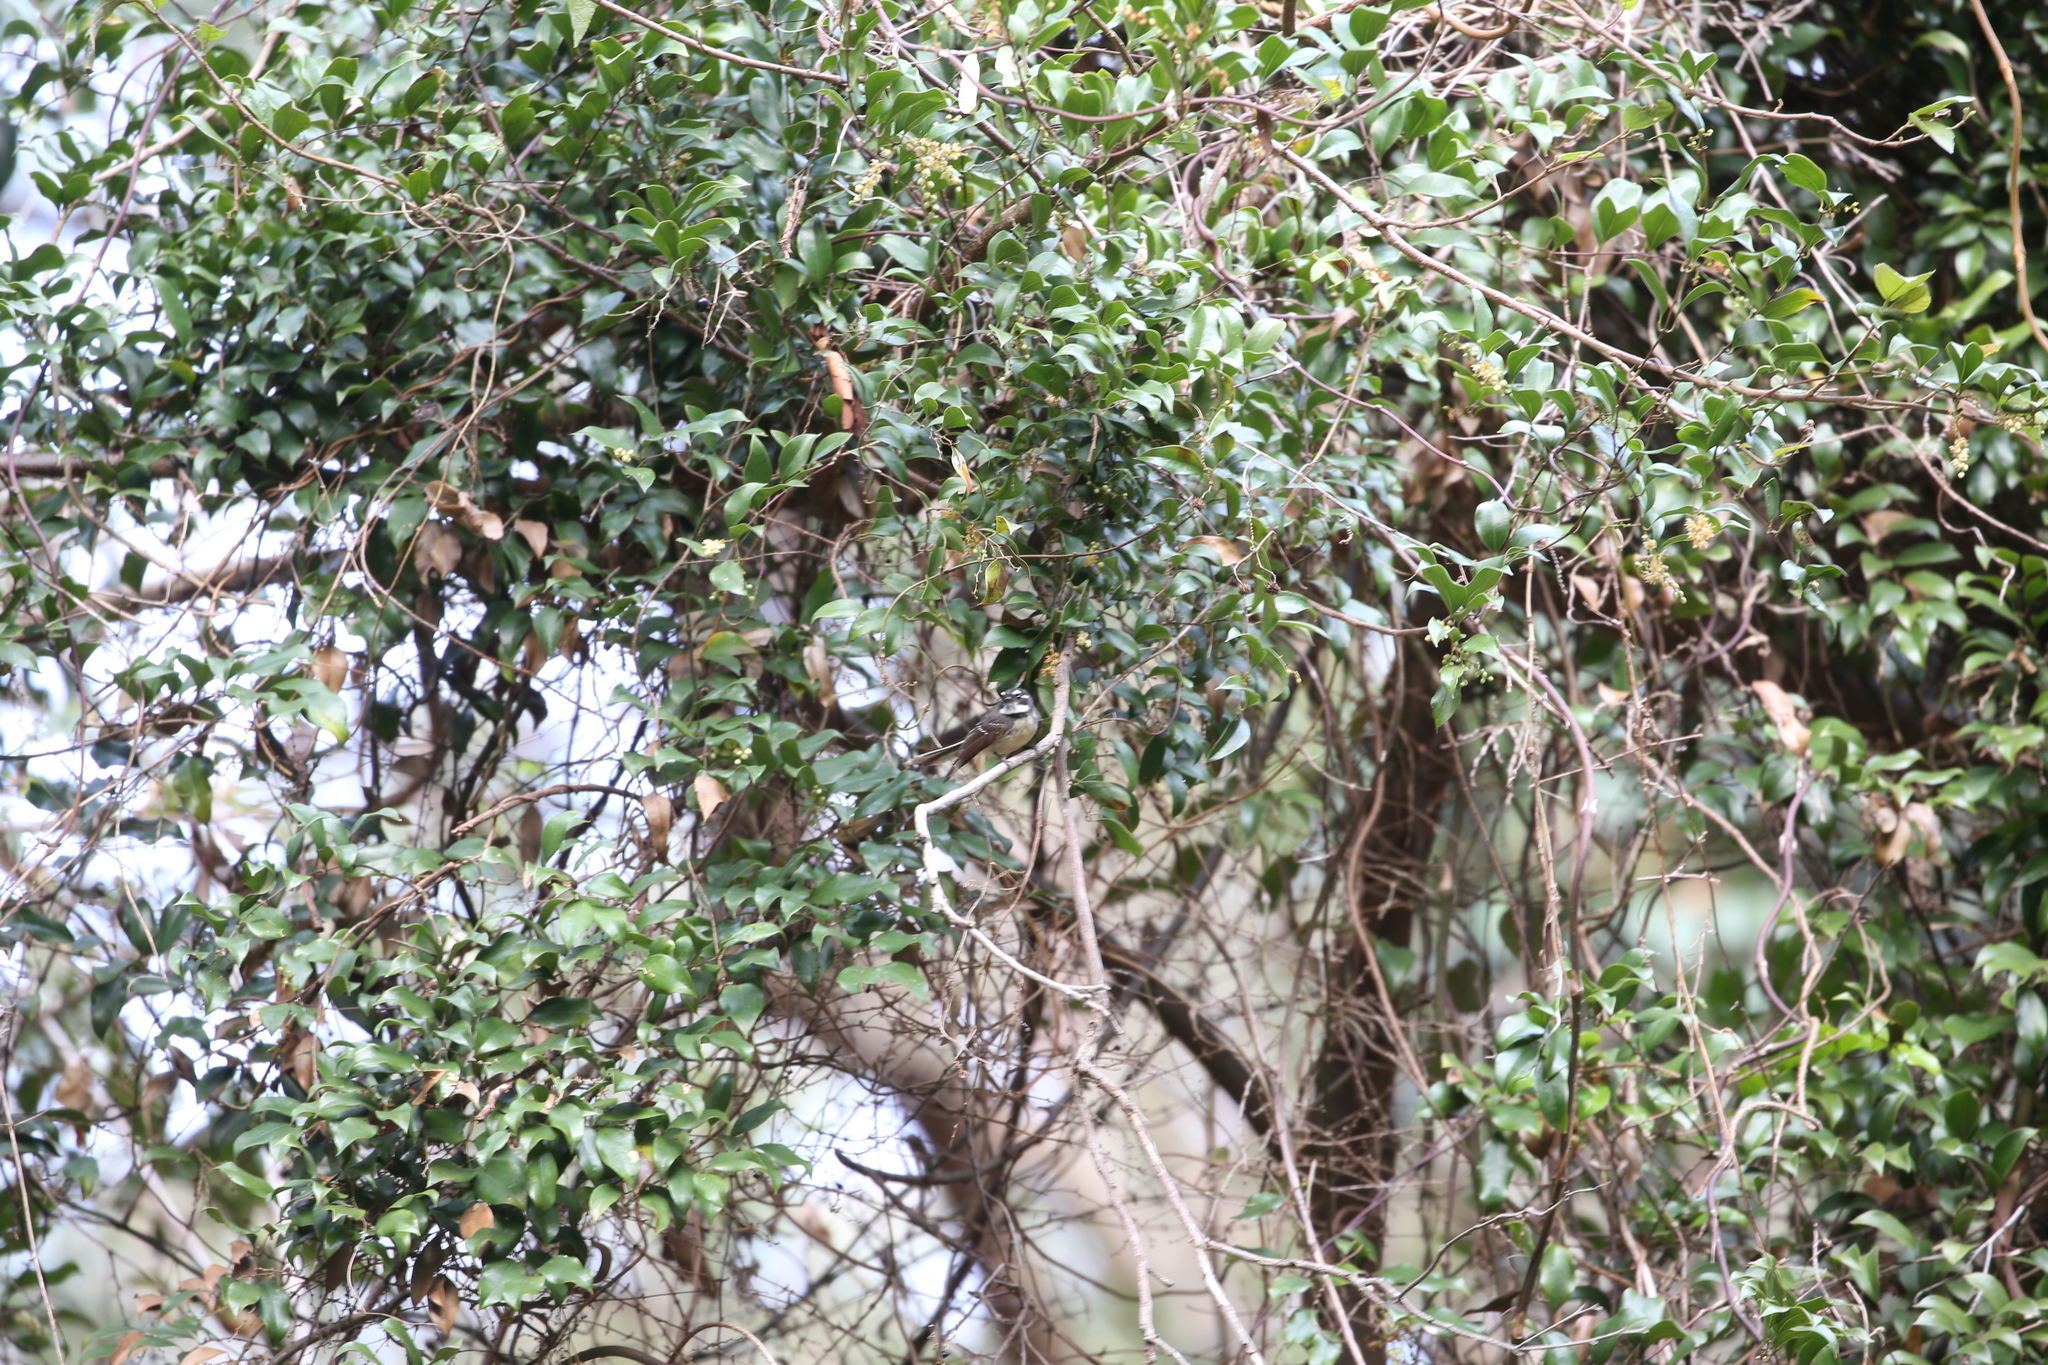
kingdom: Animalia
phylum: Chordata
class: Aves
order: Passeriformes
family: Rhipiduridae
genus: Rhipidura
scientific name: Rhipidura albiscapa
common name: Grey fantail
